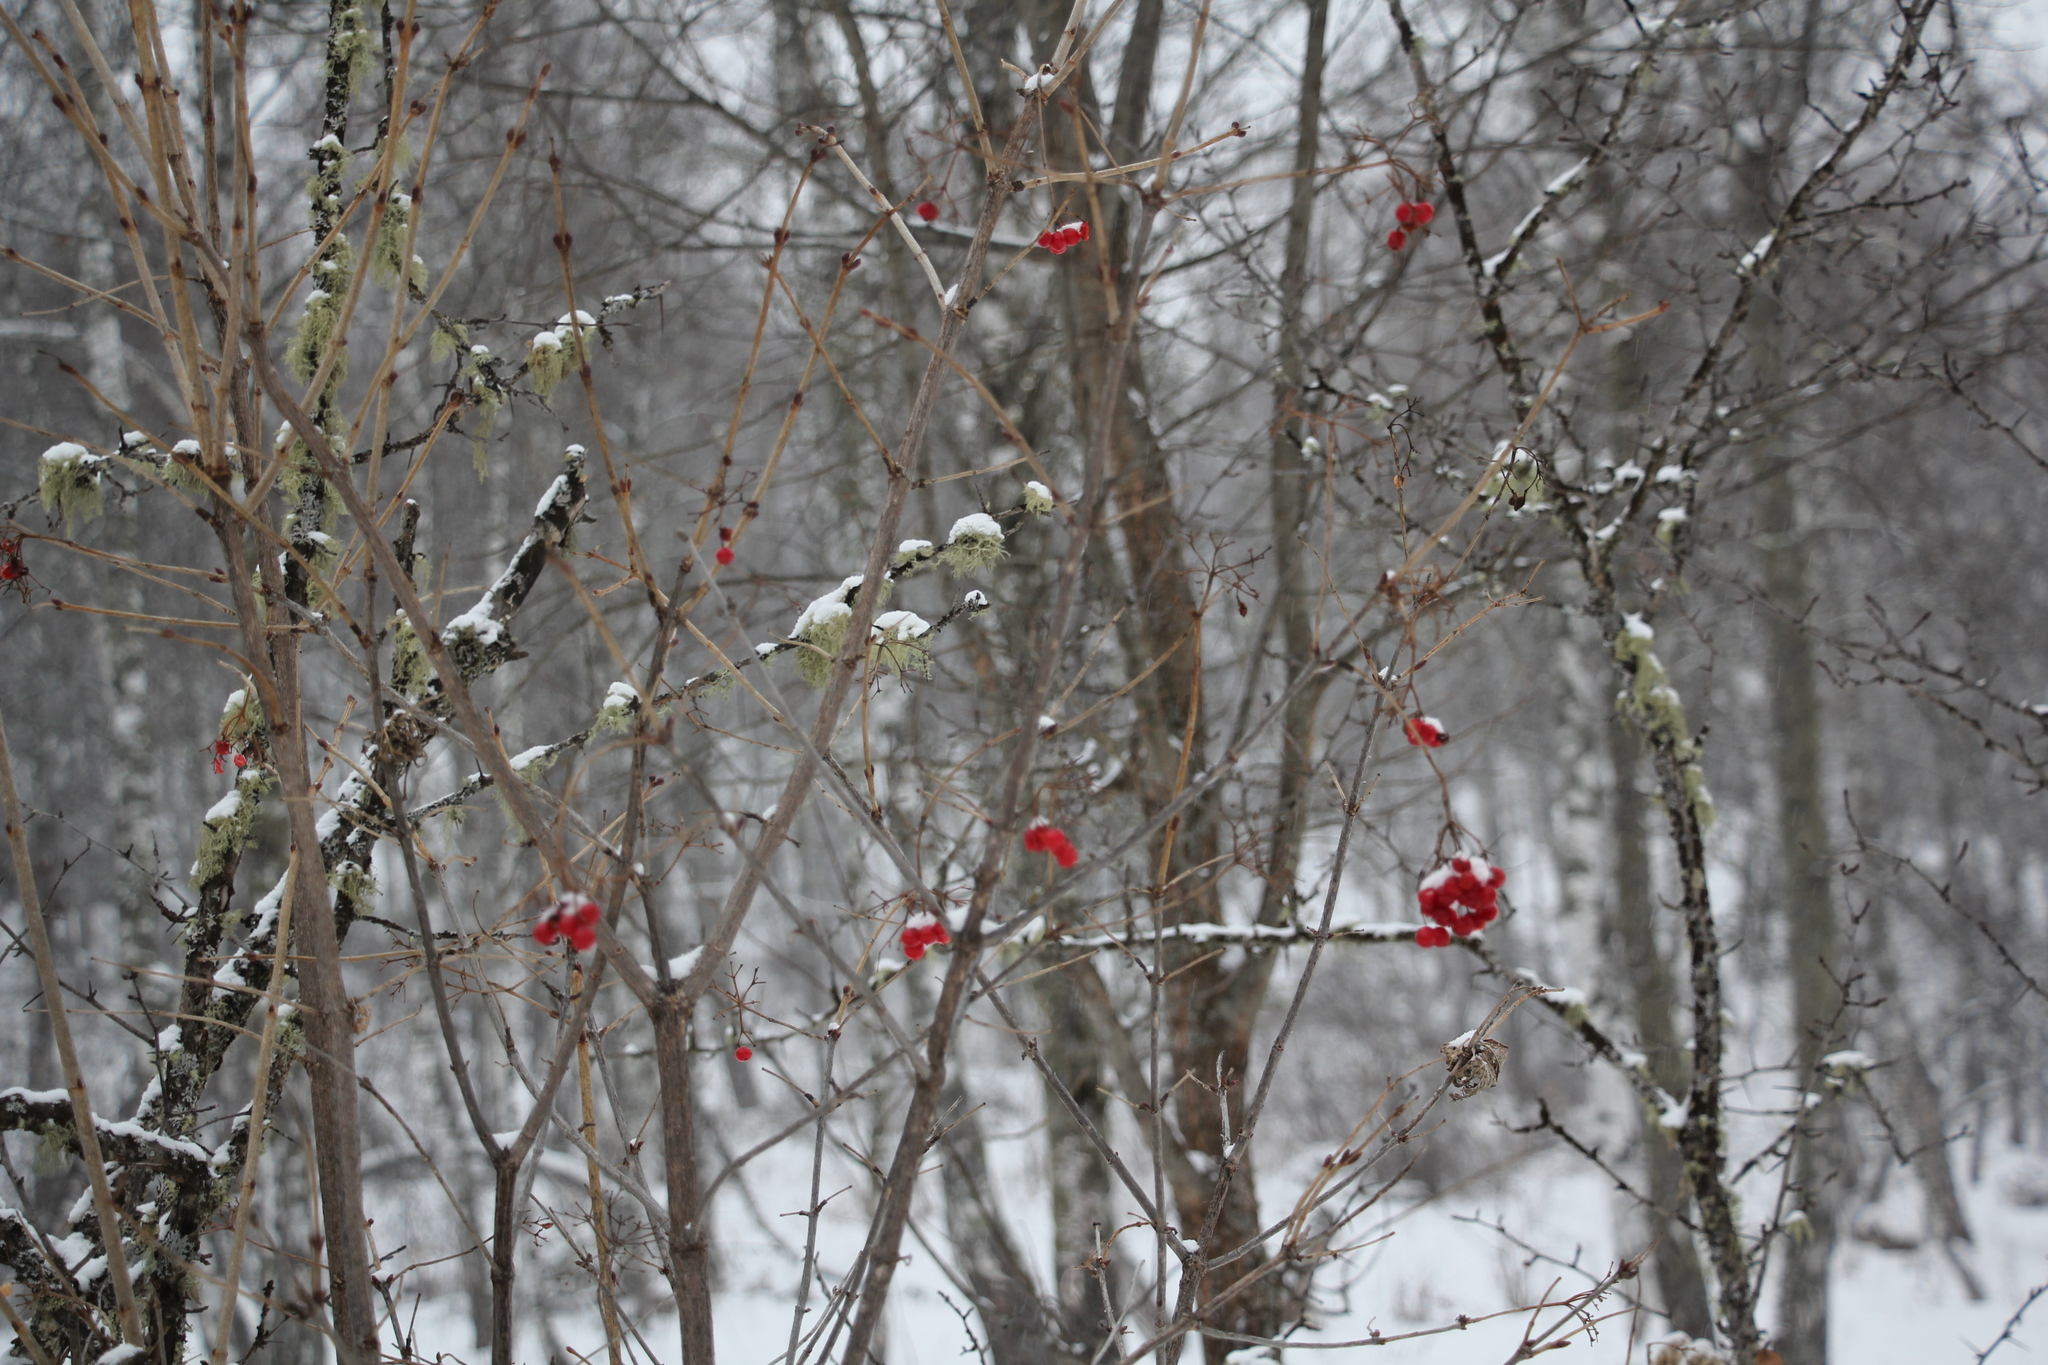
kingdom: Plantae
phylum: Tracheophyta
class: Magnoliopsida
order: Dipsacales
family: Viburnaceae
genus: Viburnum
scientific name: Viburnum opulus
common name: Guelder-rose
